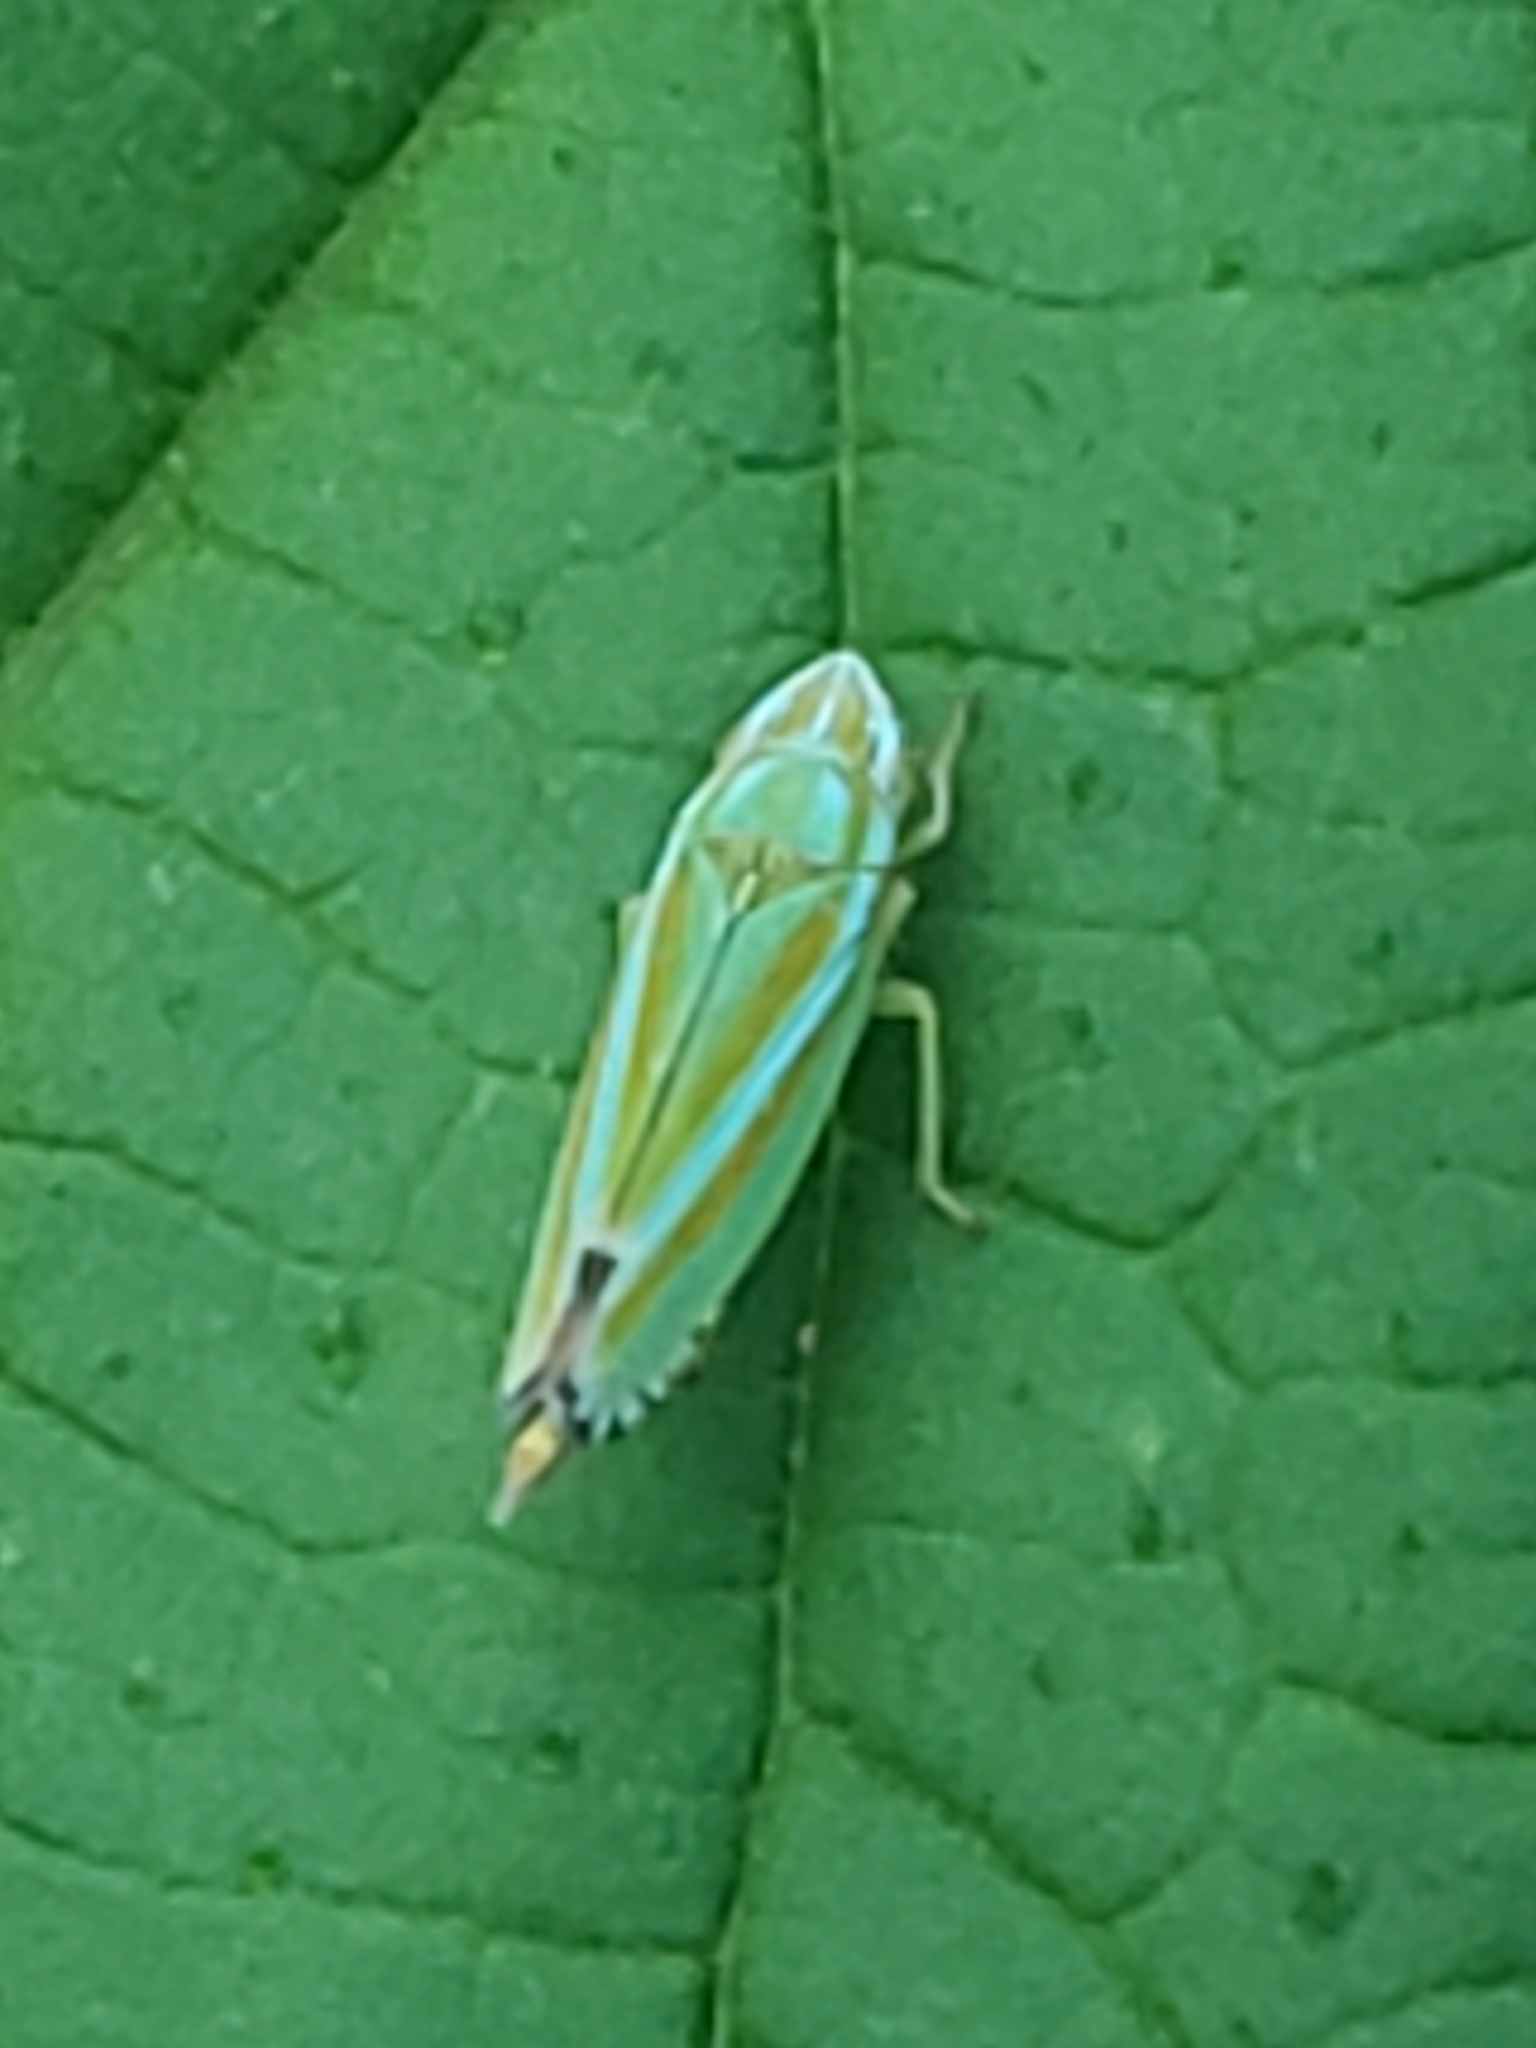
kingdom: Animalia
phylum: Arthropoda
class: Insecta
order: Hemiptera
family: Cicadellidae
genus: Graphocephala
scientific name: Graphocephala versuta
